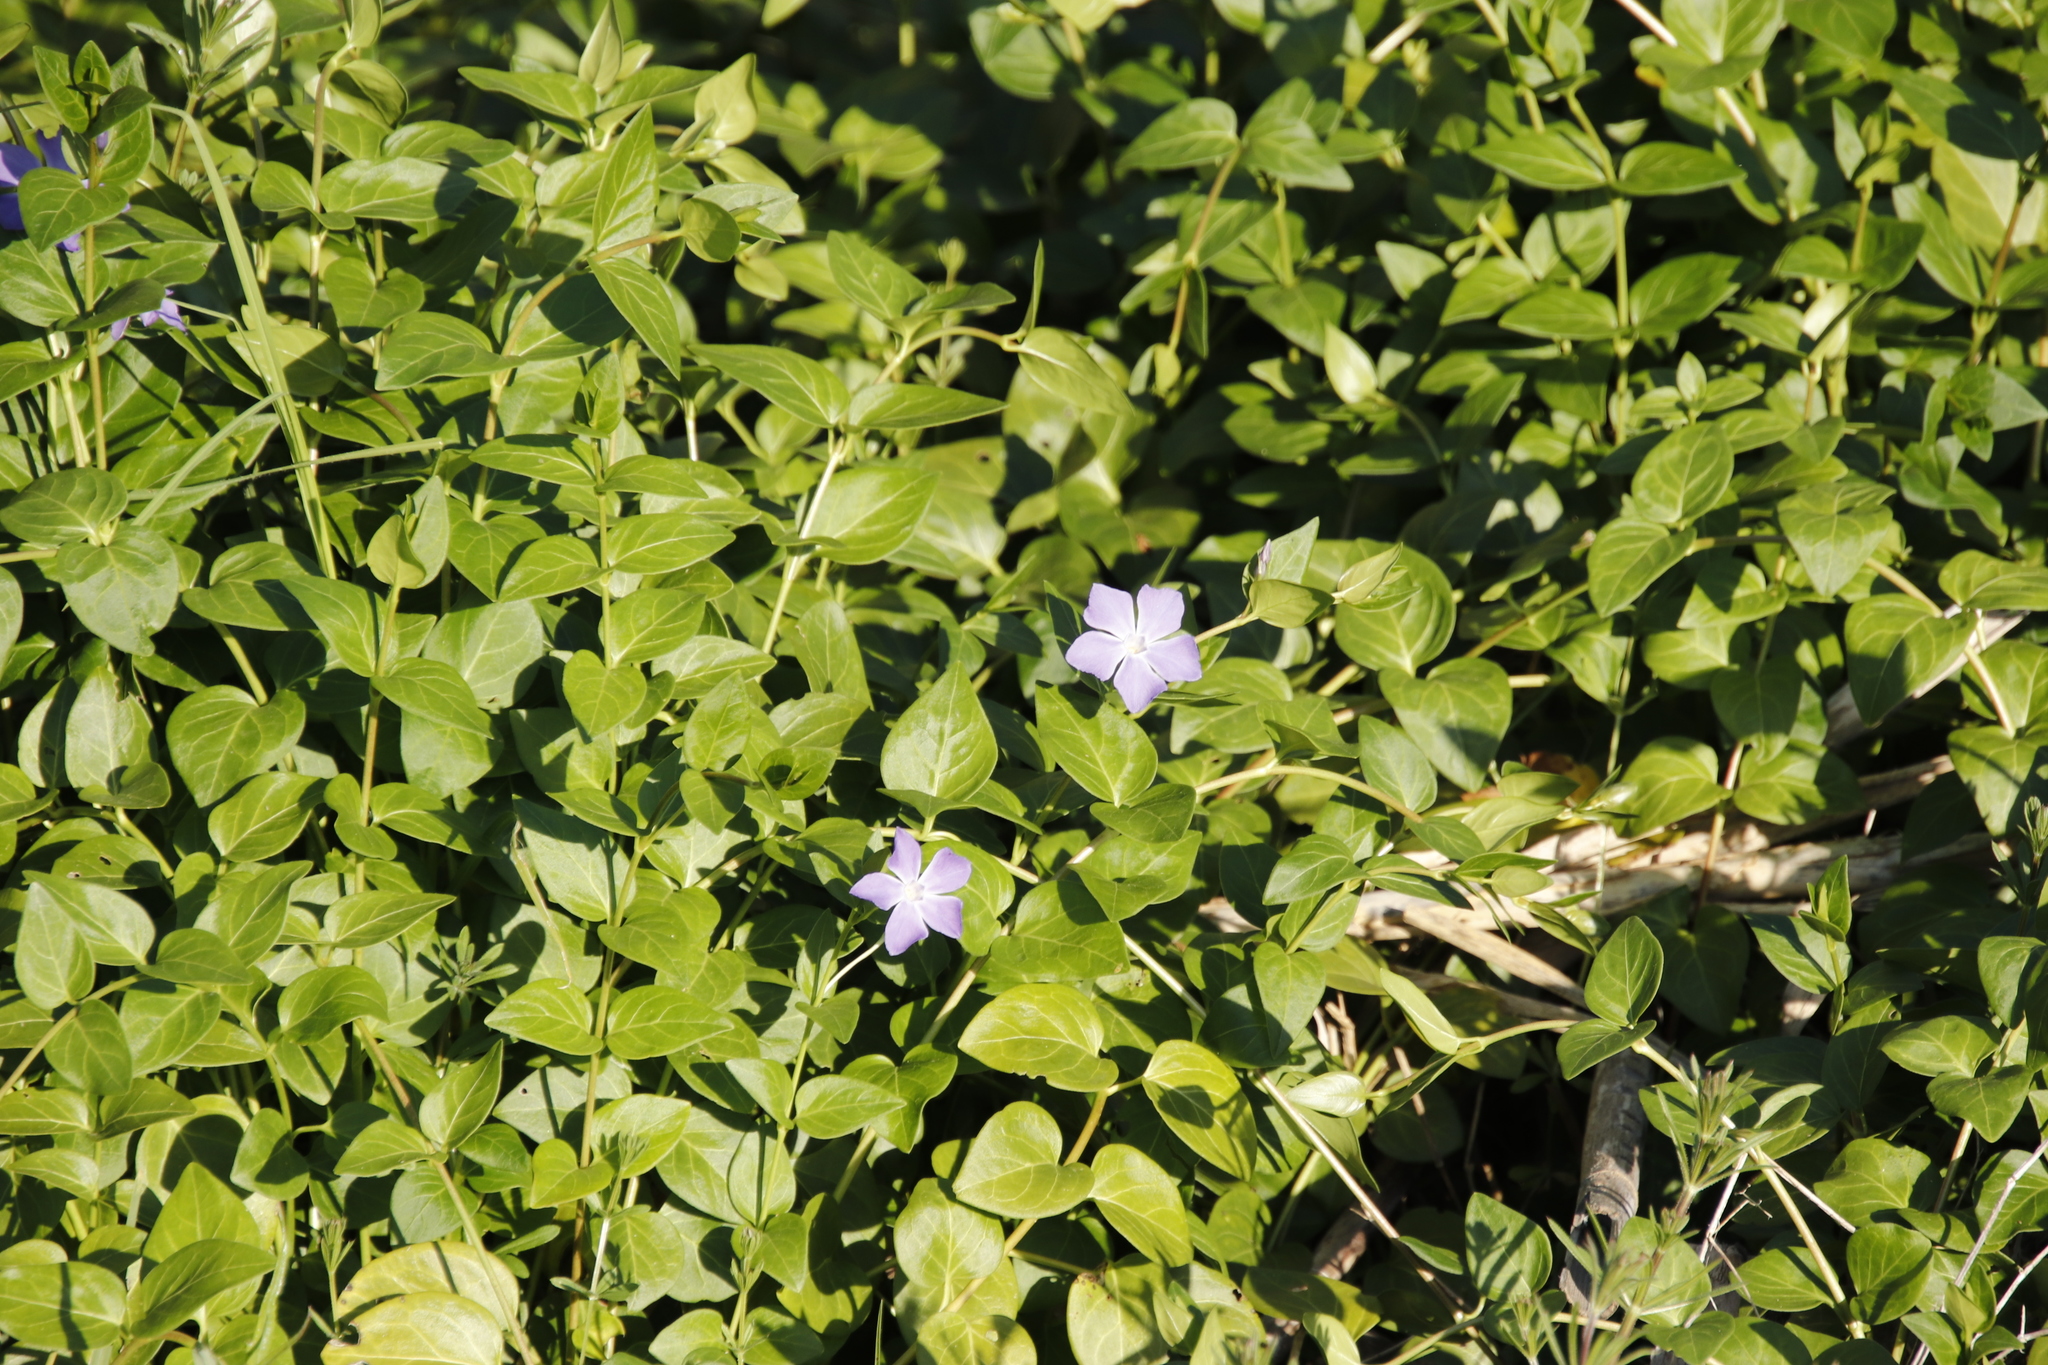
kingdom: Plantae
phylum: Tracheophyta
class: Magnoliopsida
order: Gentianales
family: Apocynaceae
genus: Vinca
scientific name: Vinca major
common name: Greater periwinkle
